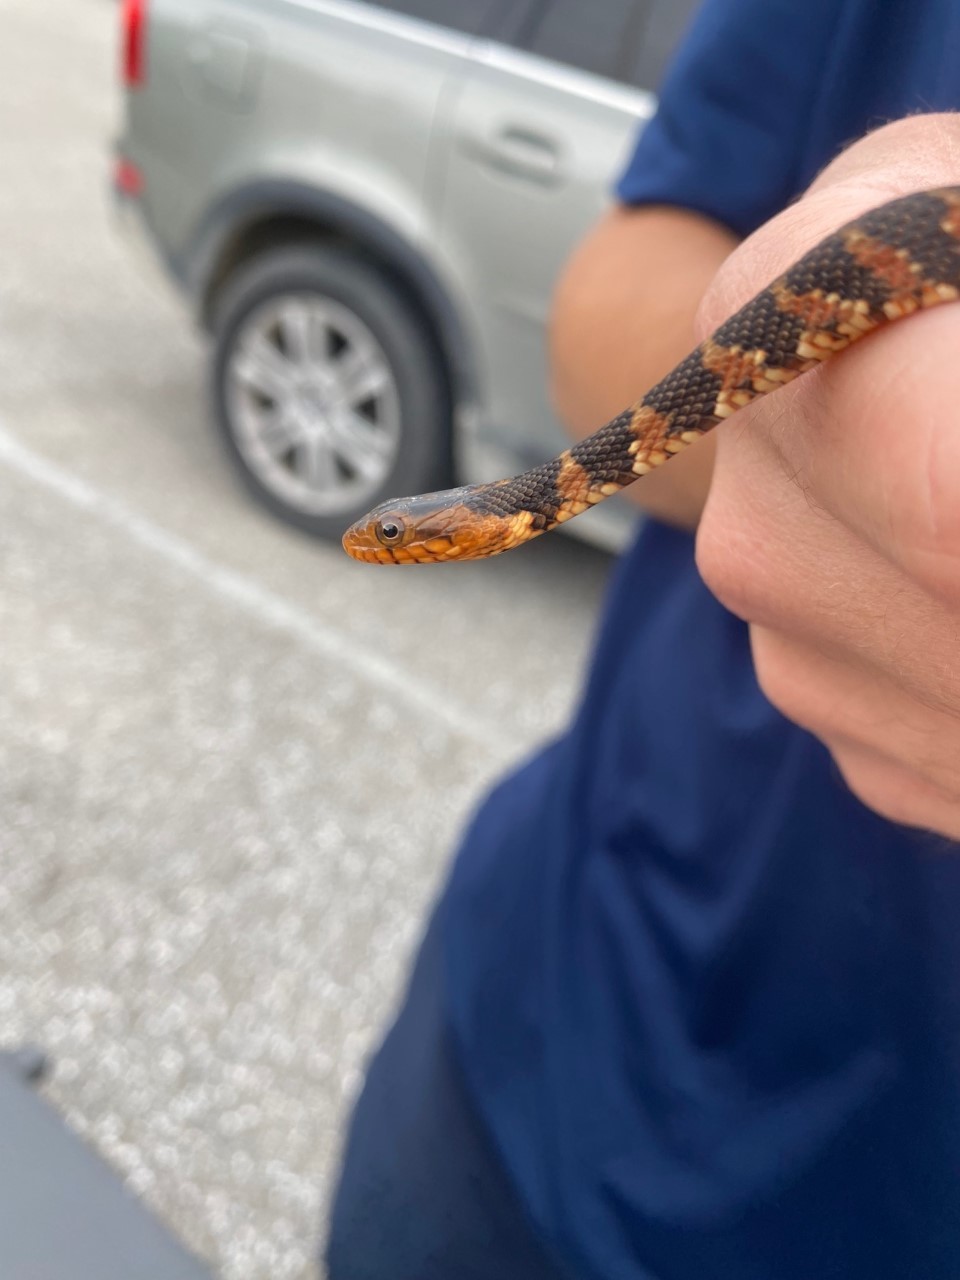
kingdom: Animalia
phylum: Chordata
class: Squamata
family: Colubridae
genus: Nerodia
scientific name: Nerodia fasciata
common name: Southern water snake
